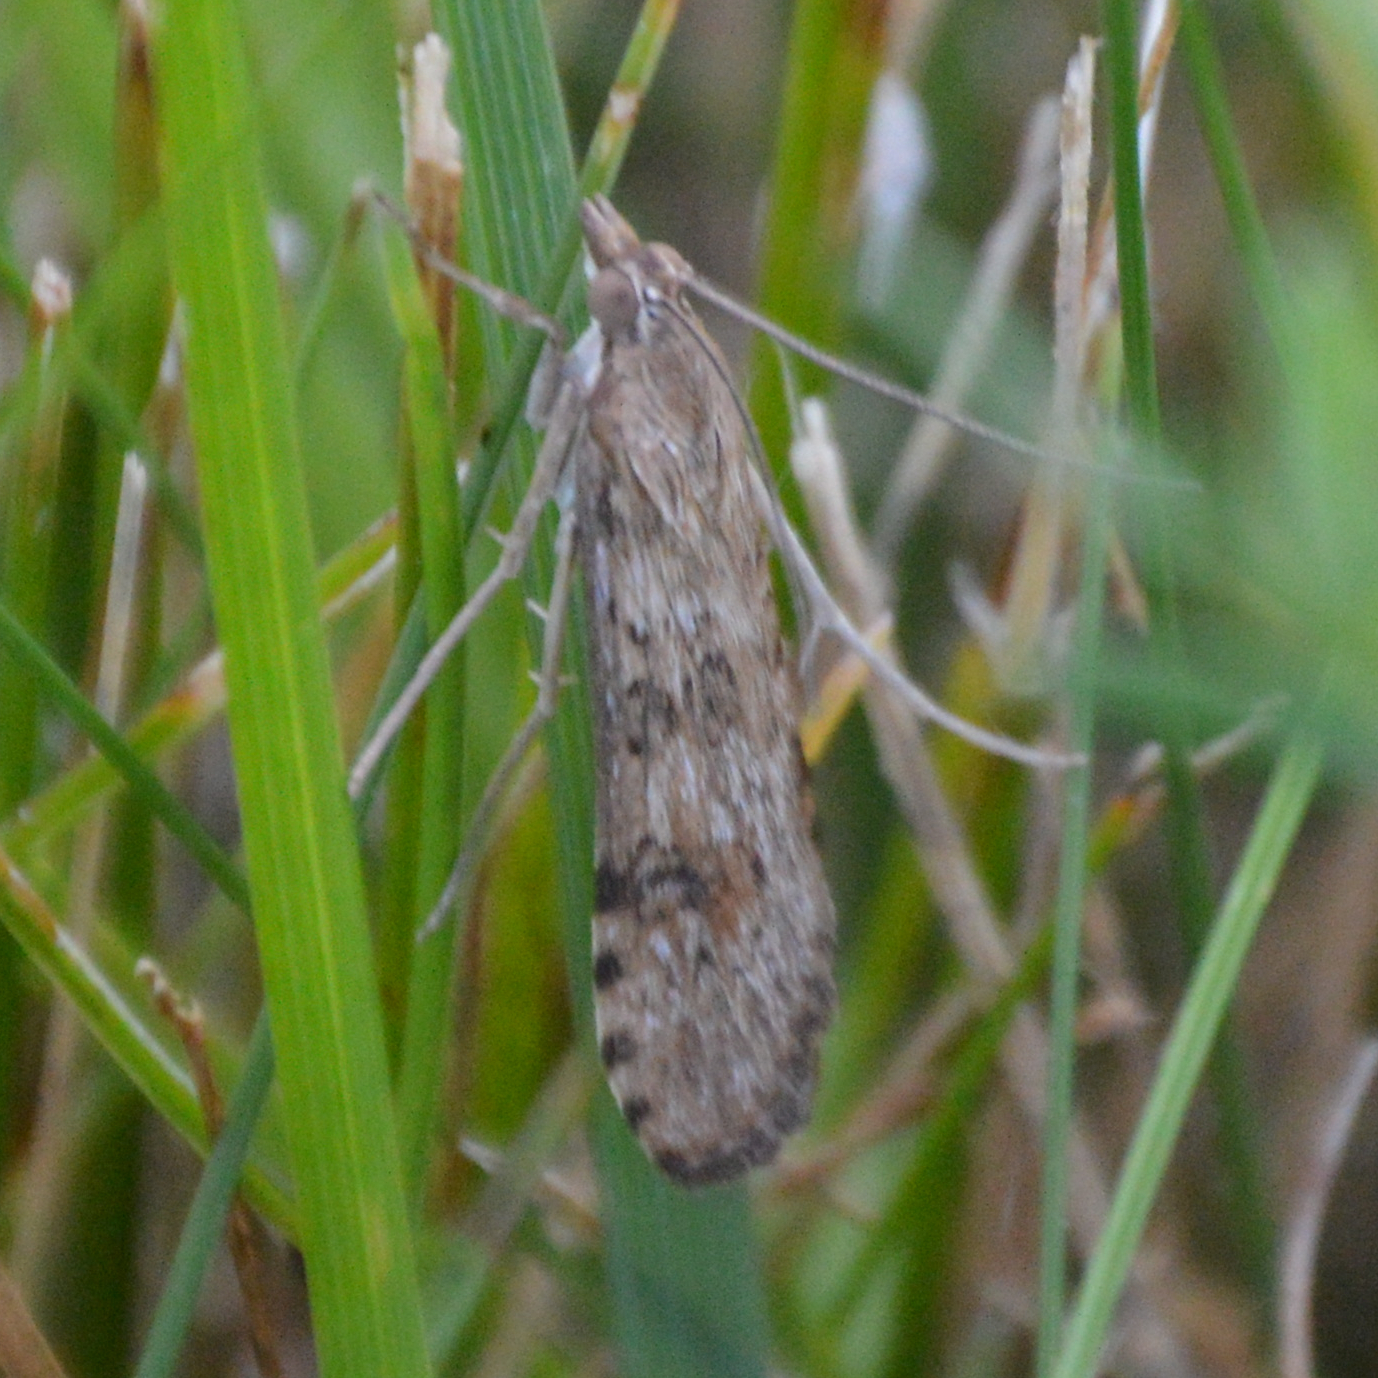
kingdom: Animalia
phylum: Arthropoda
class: Insecta
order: Lepidoptera
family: Crambidae
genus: Nomophila
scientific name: Nomophila nearctica
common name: American rush veneer
